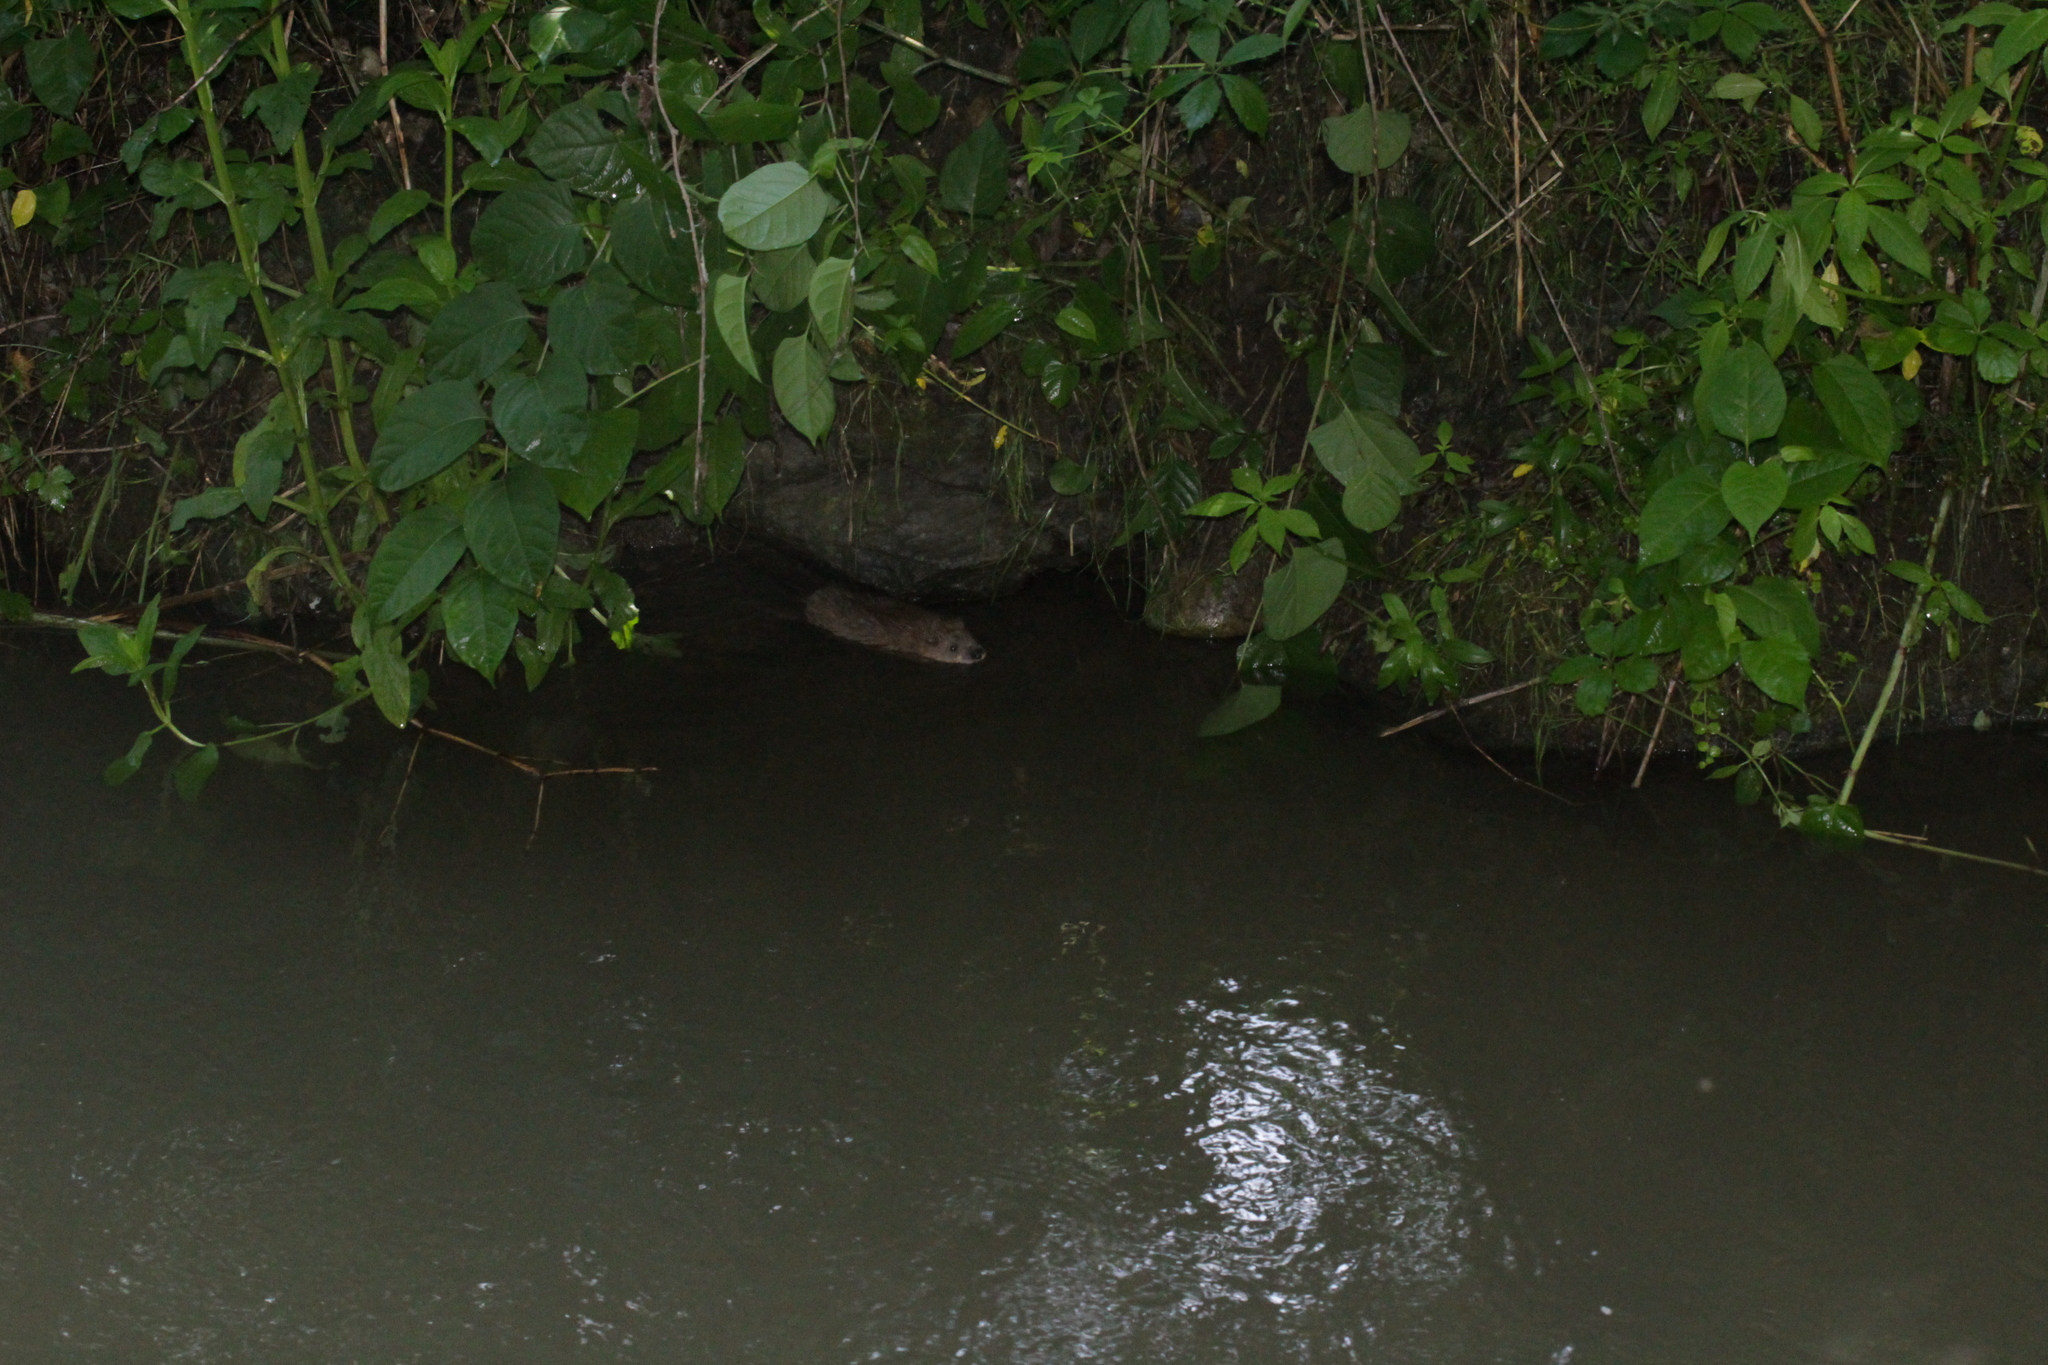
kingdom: Animalia
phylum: Chordata
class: Mammalia
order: Rodentia
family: Cricetidae
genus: Ondatra
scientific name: Ondatra zibethicus
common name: Muskrat
